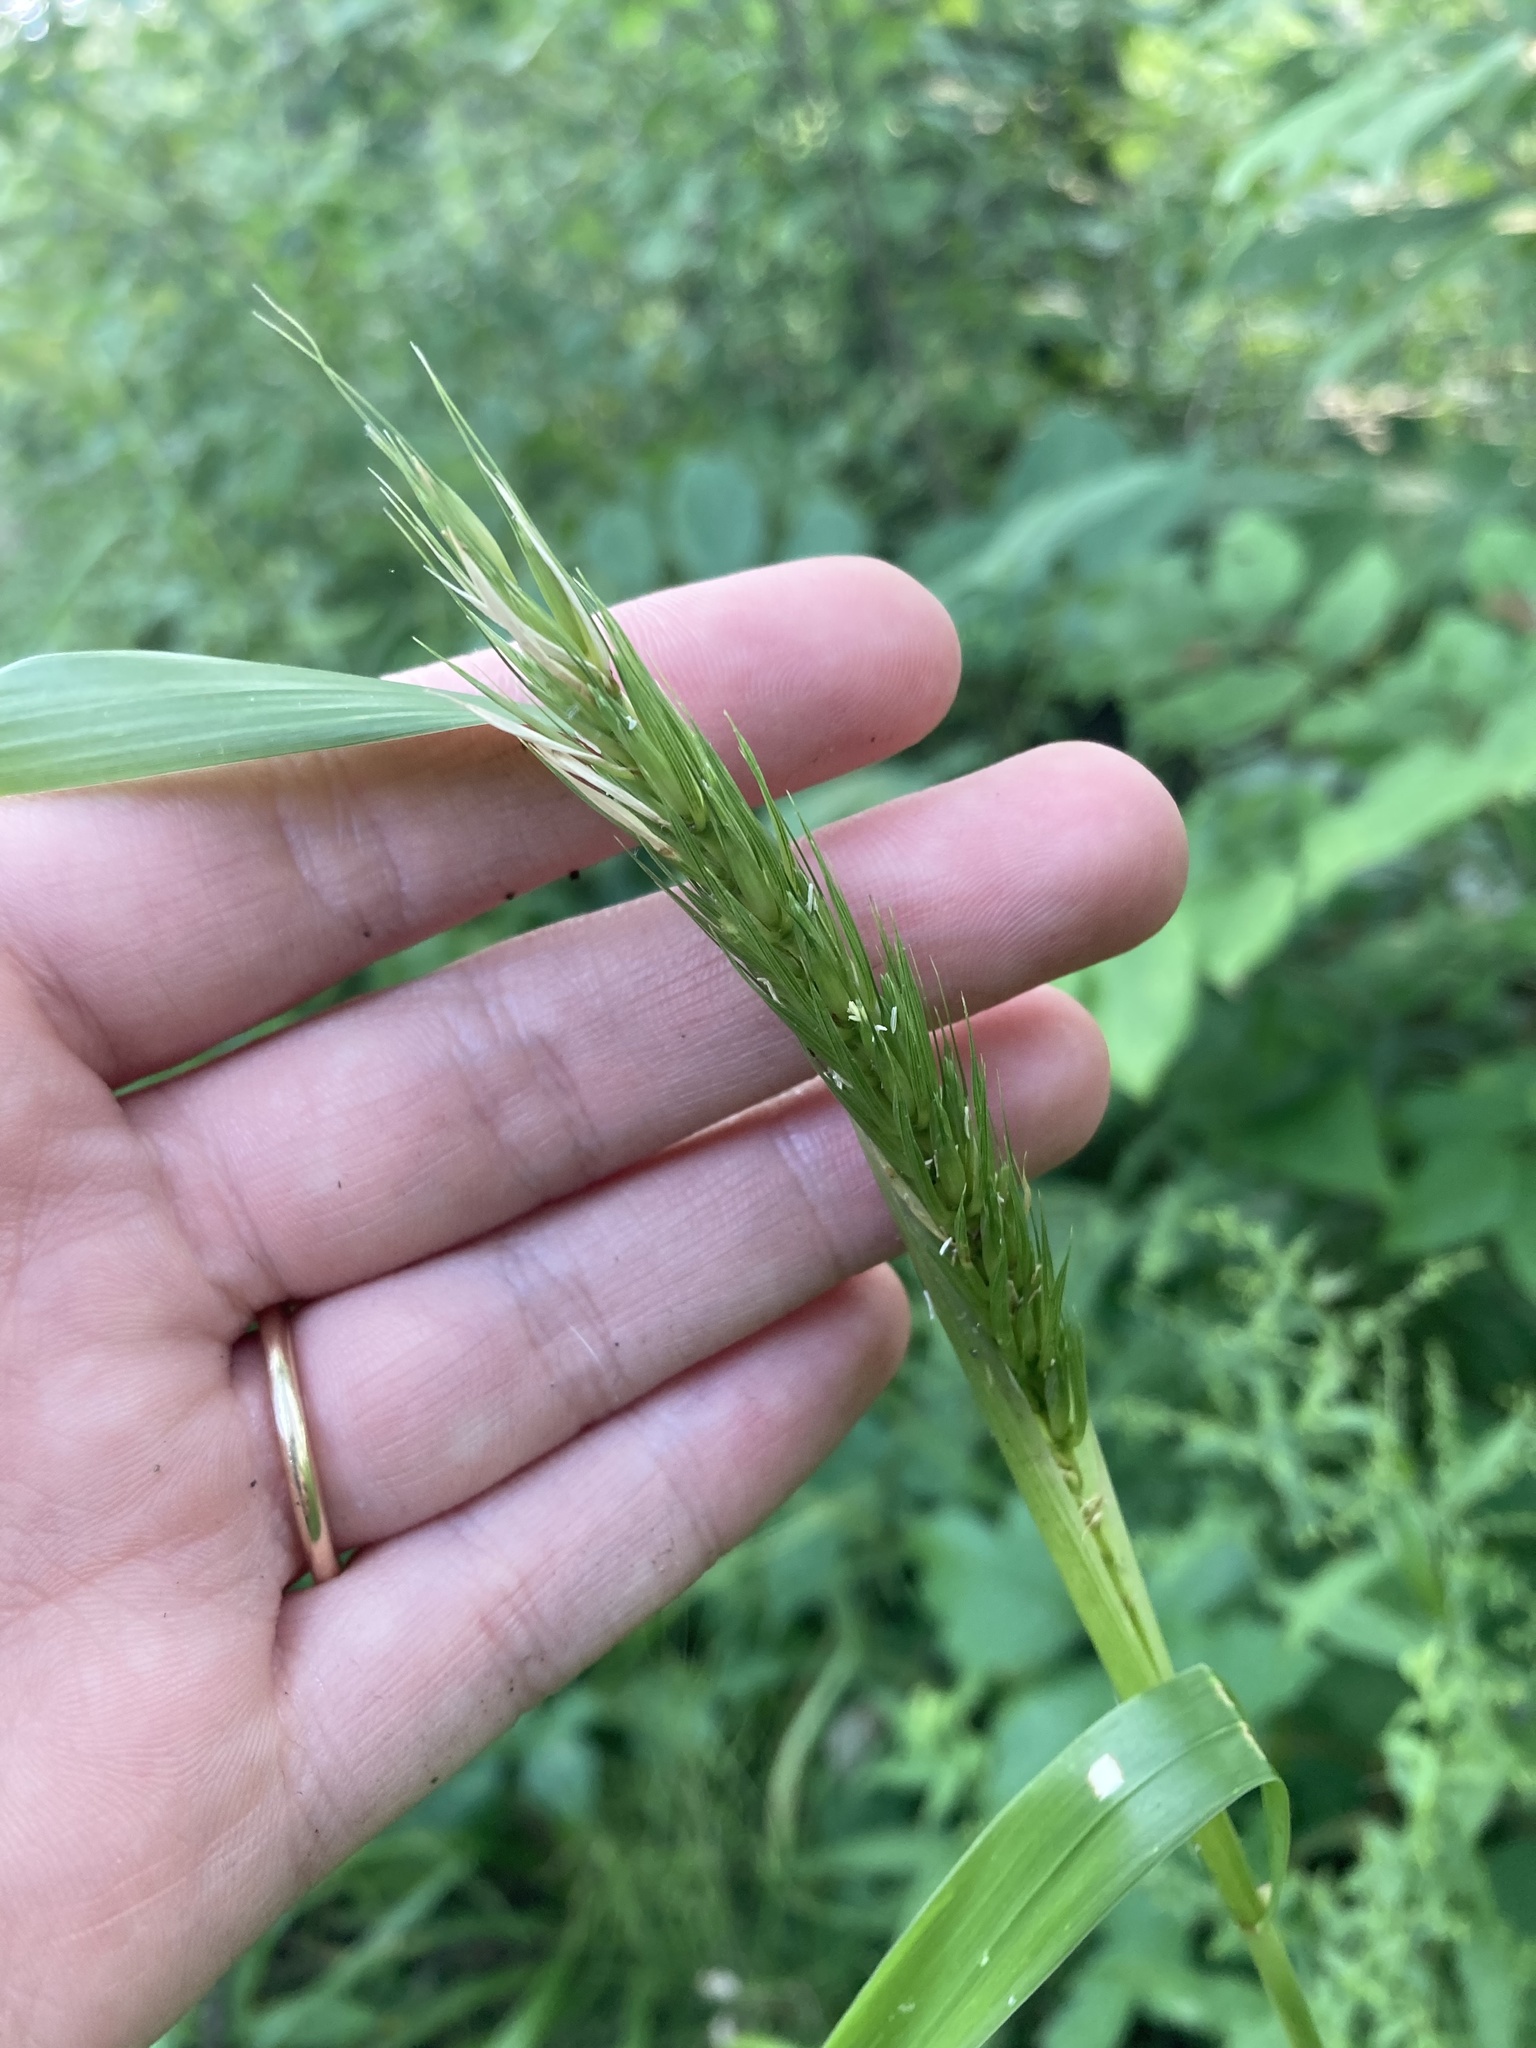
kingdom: Plantae
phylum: Tracheophyta
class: Liliopsida
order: Poales
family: Poaceae
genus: Elymus
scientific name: Elymus virginicus
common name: Common eastern wildrye
